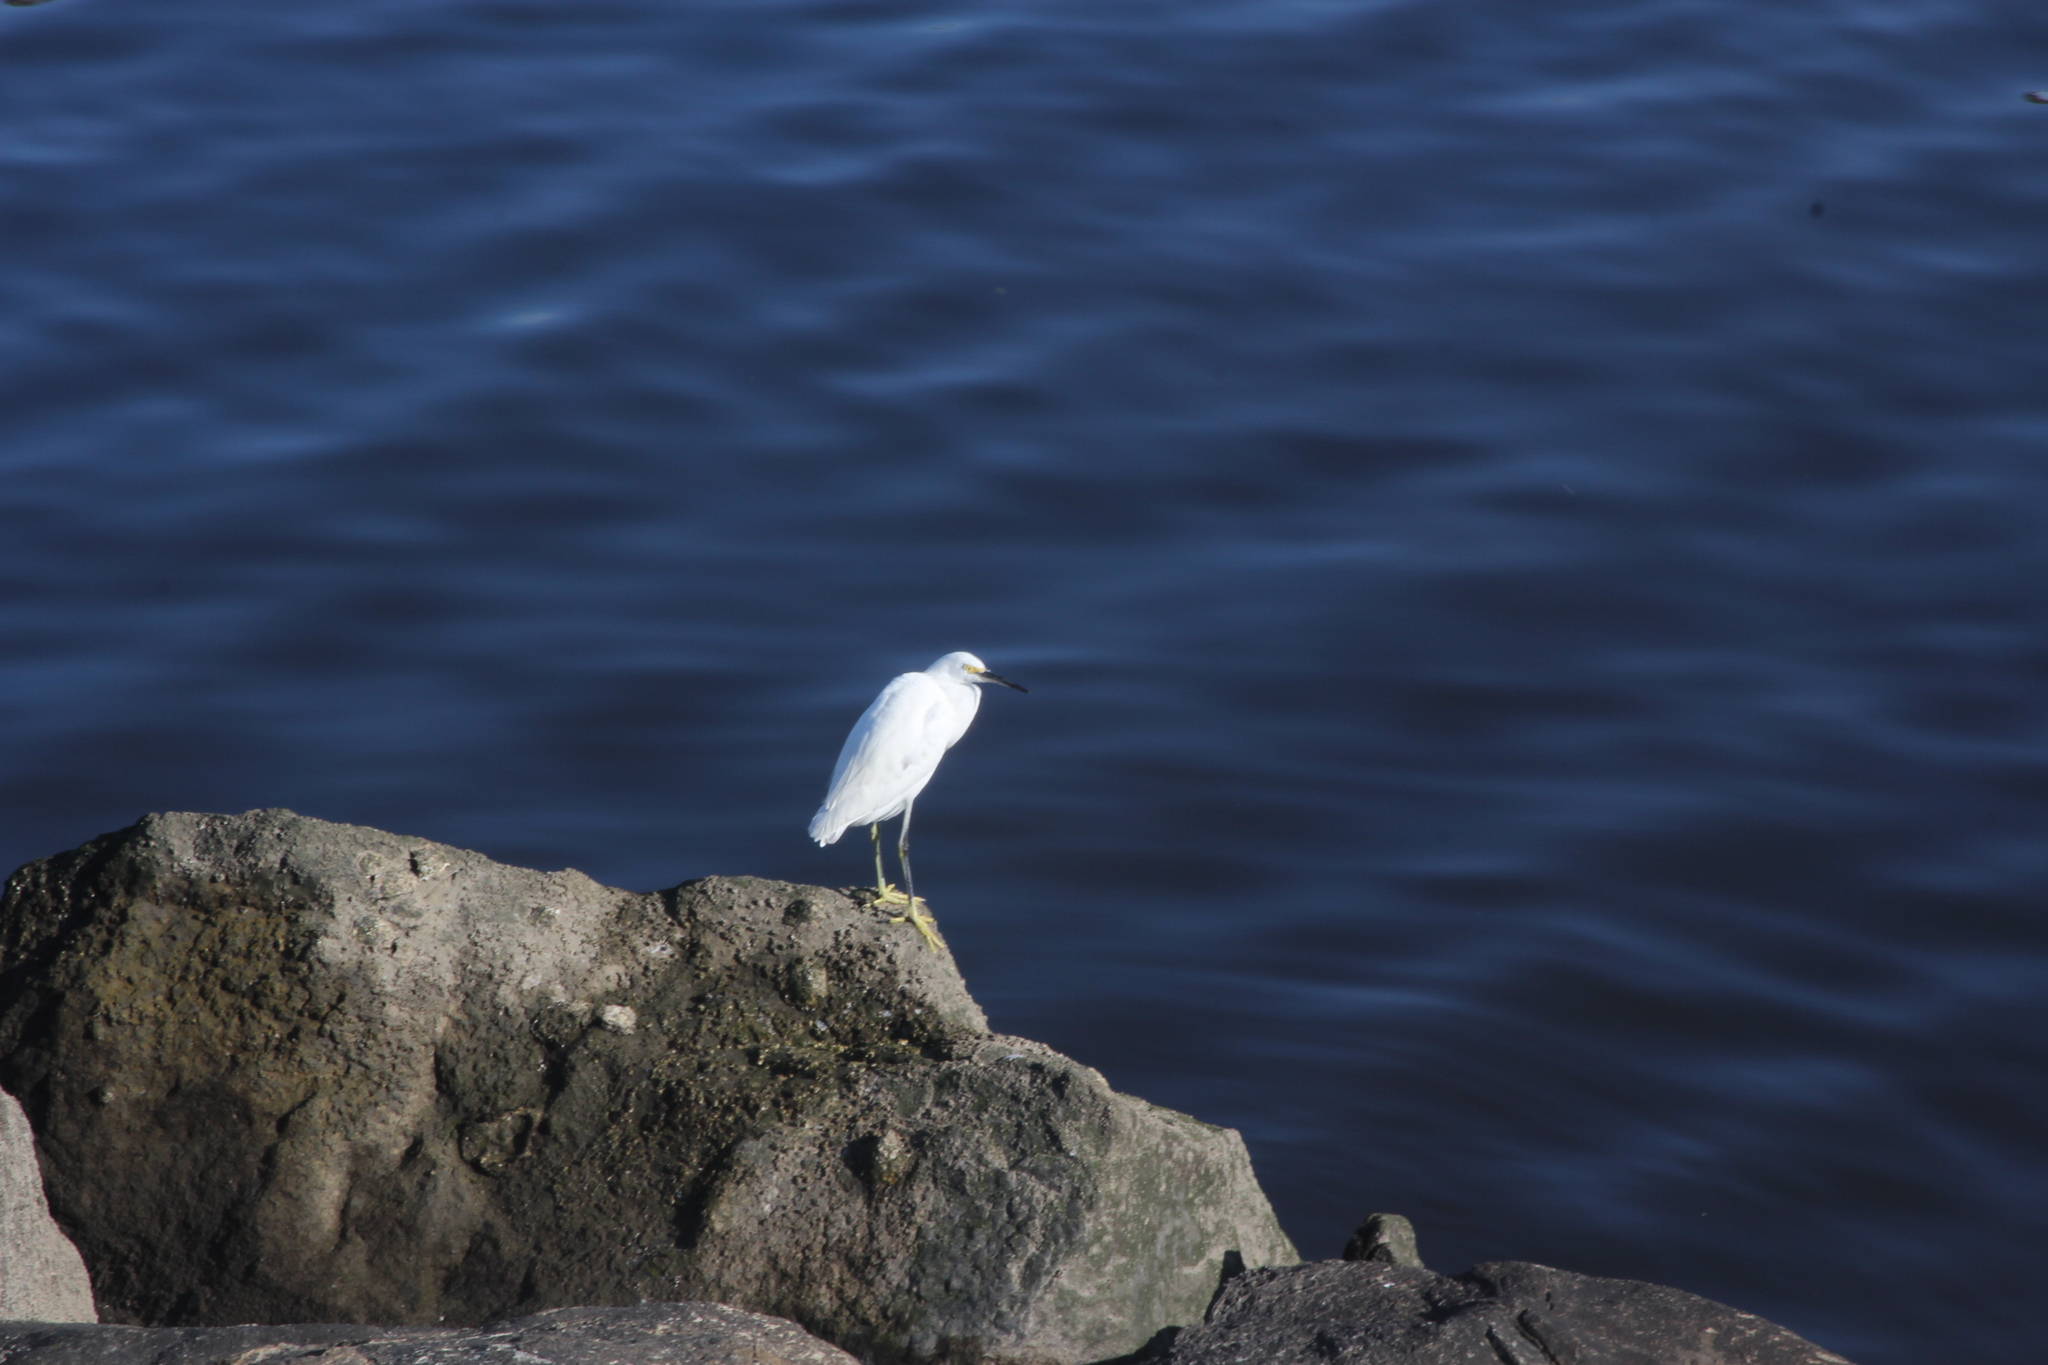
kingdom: Animalia
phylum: Chordata
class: Aves
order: Pelecaniformes
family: Ardeidae
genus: Egretta
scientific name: Egretta thula
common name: Snowy egret
